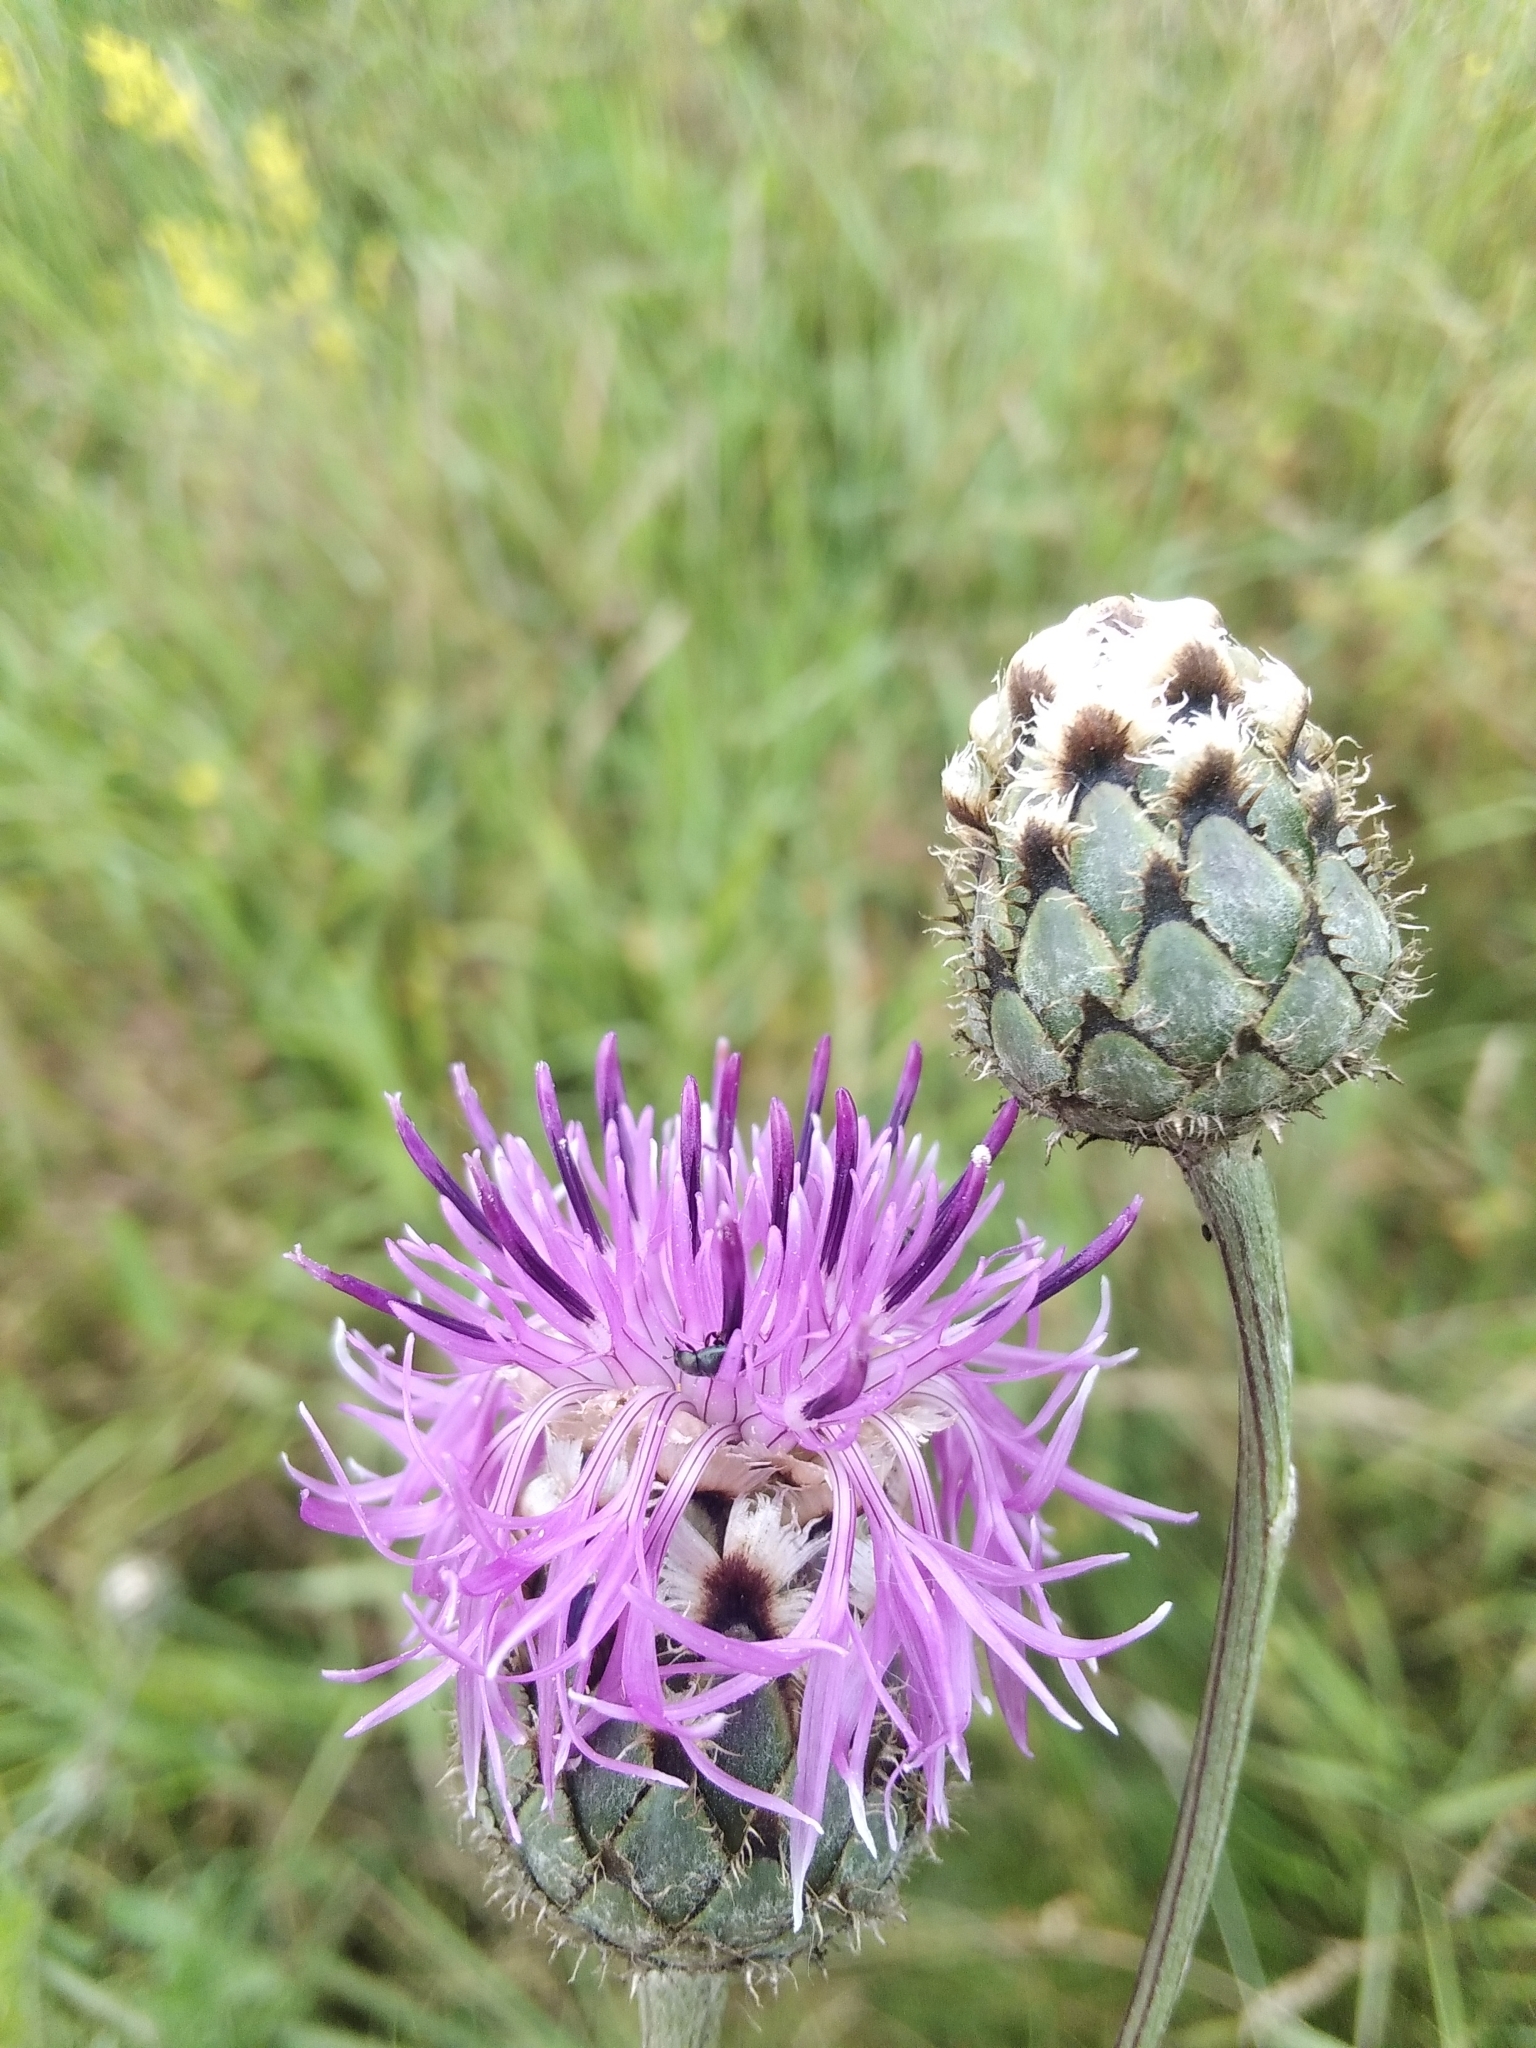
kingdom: Plantae
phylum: Tracheophyta
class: Magnoliopsida
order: Asterales
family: Asteraceae
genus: Centaurea
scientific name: Centaurea sadleriana
